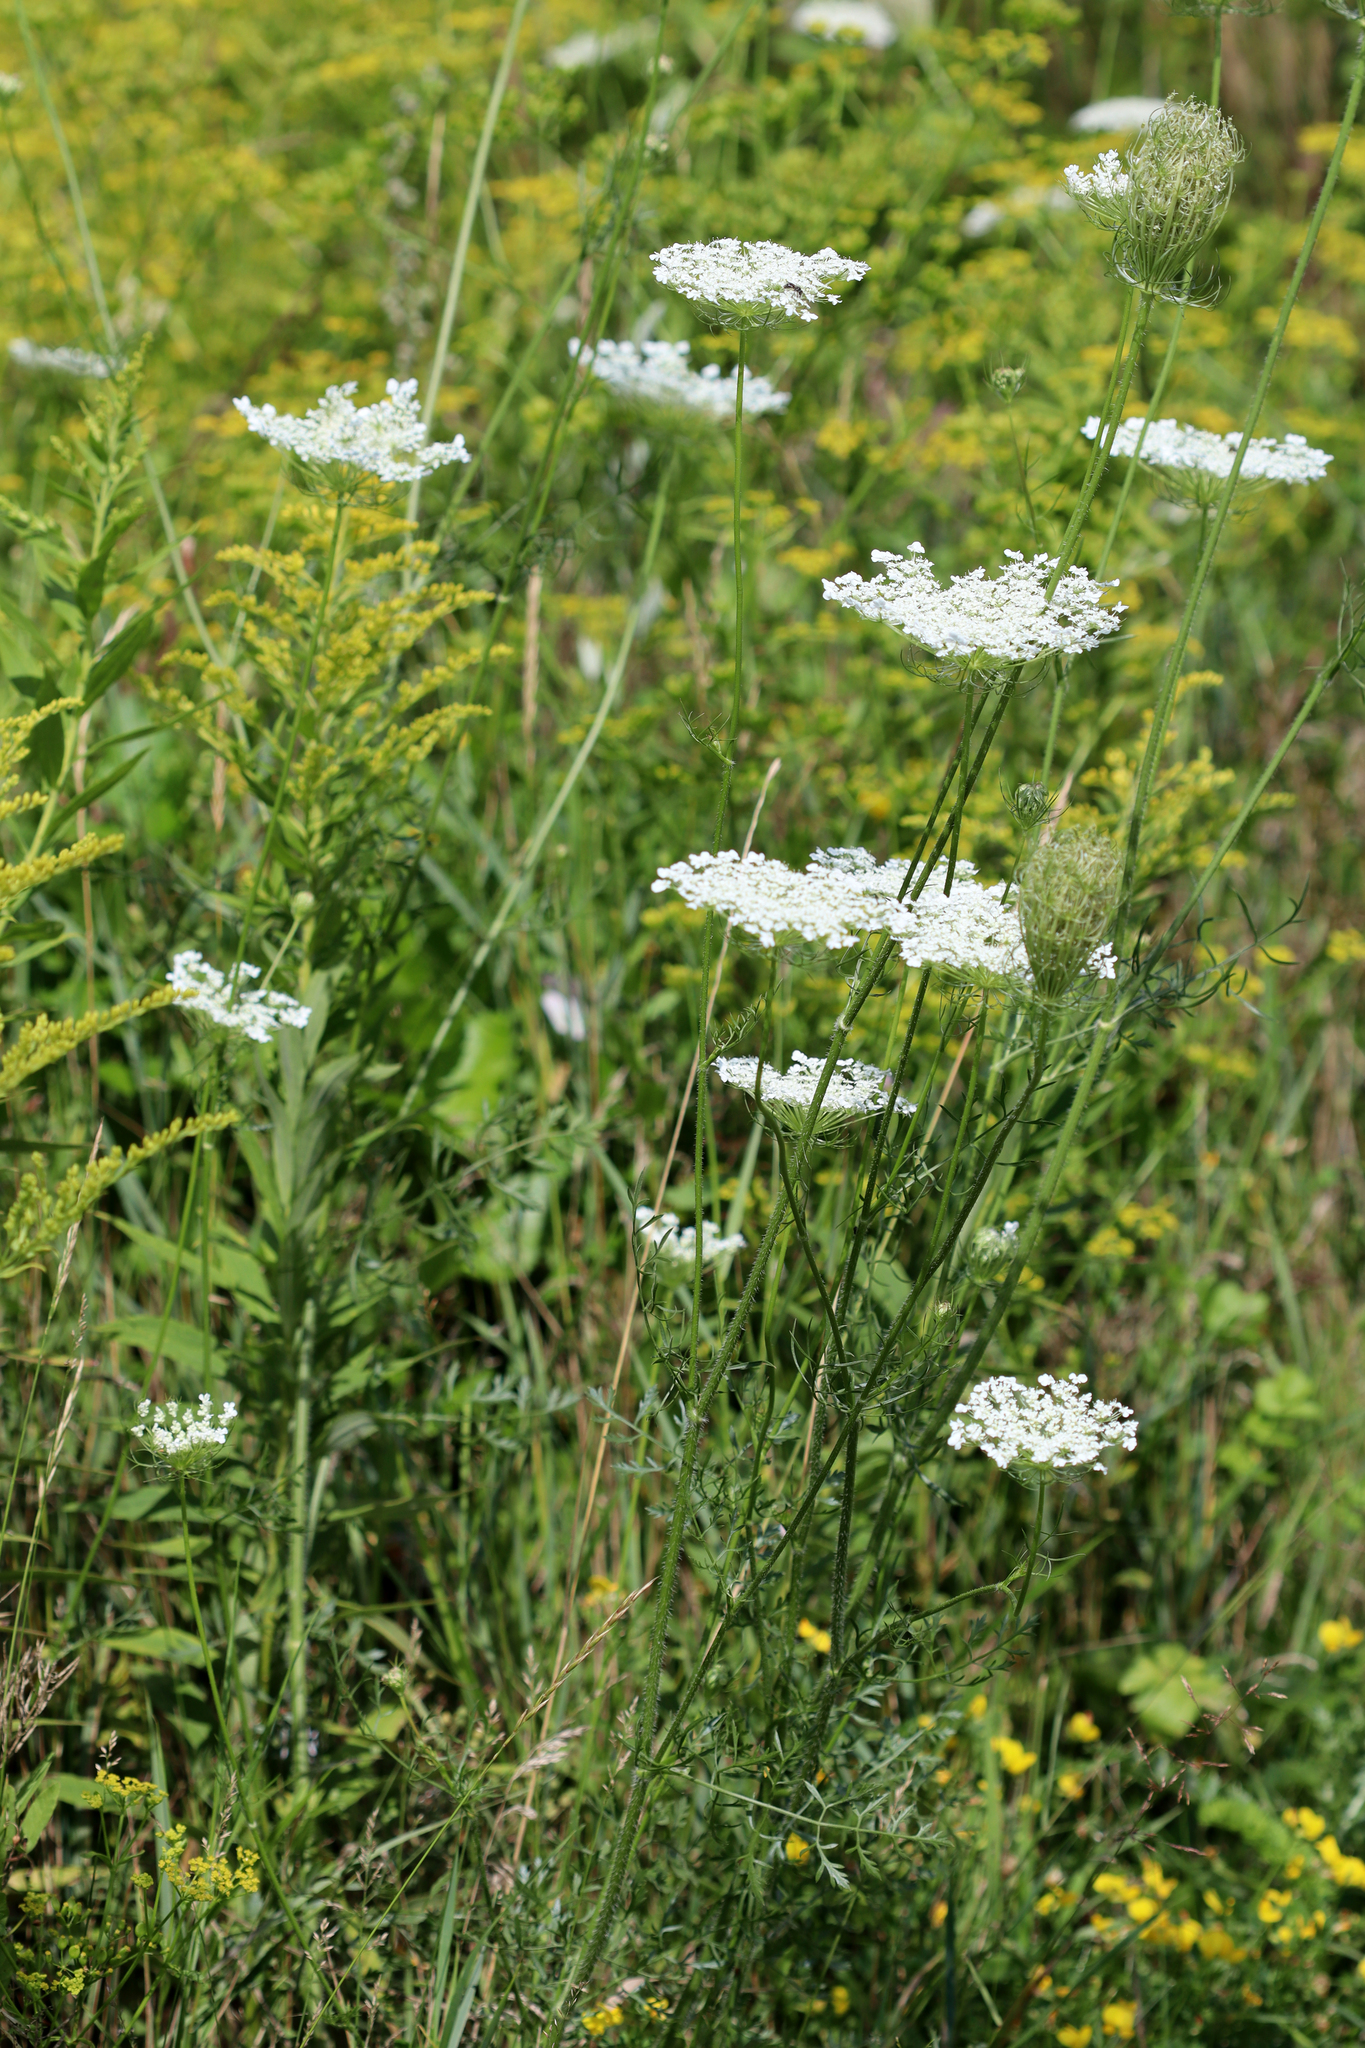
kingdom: Plantae
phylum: Tracheophyta
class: Magnoliopsida
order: Apiales
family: Apiaceae
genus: Daucus
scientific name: Daucus carota
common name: Wild carrot
